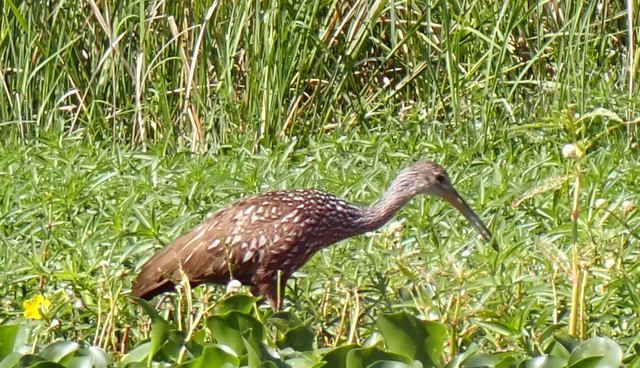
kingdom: Animalia
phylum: Chordata
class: Aves
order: Gruiformes
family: Aramidae
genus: Aramus
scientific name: Aramus guarauna
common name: Limpkin
